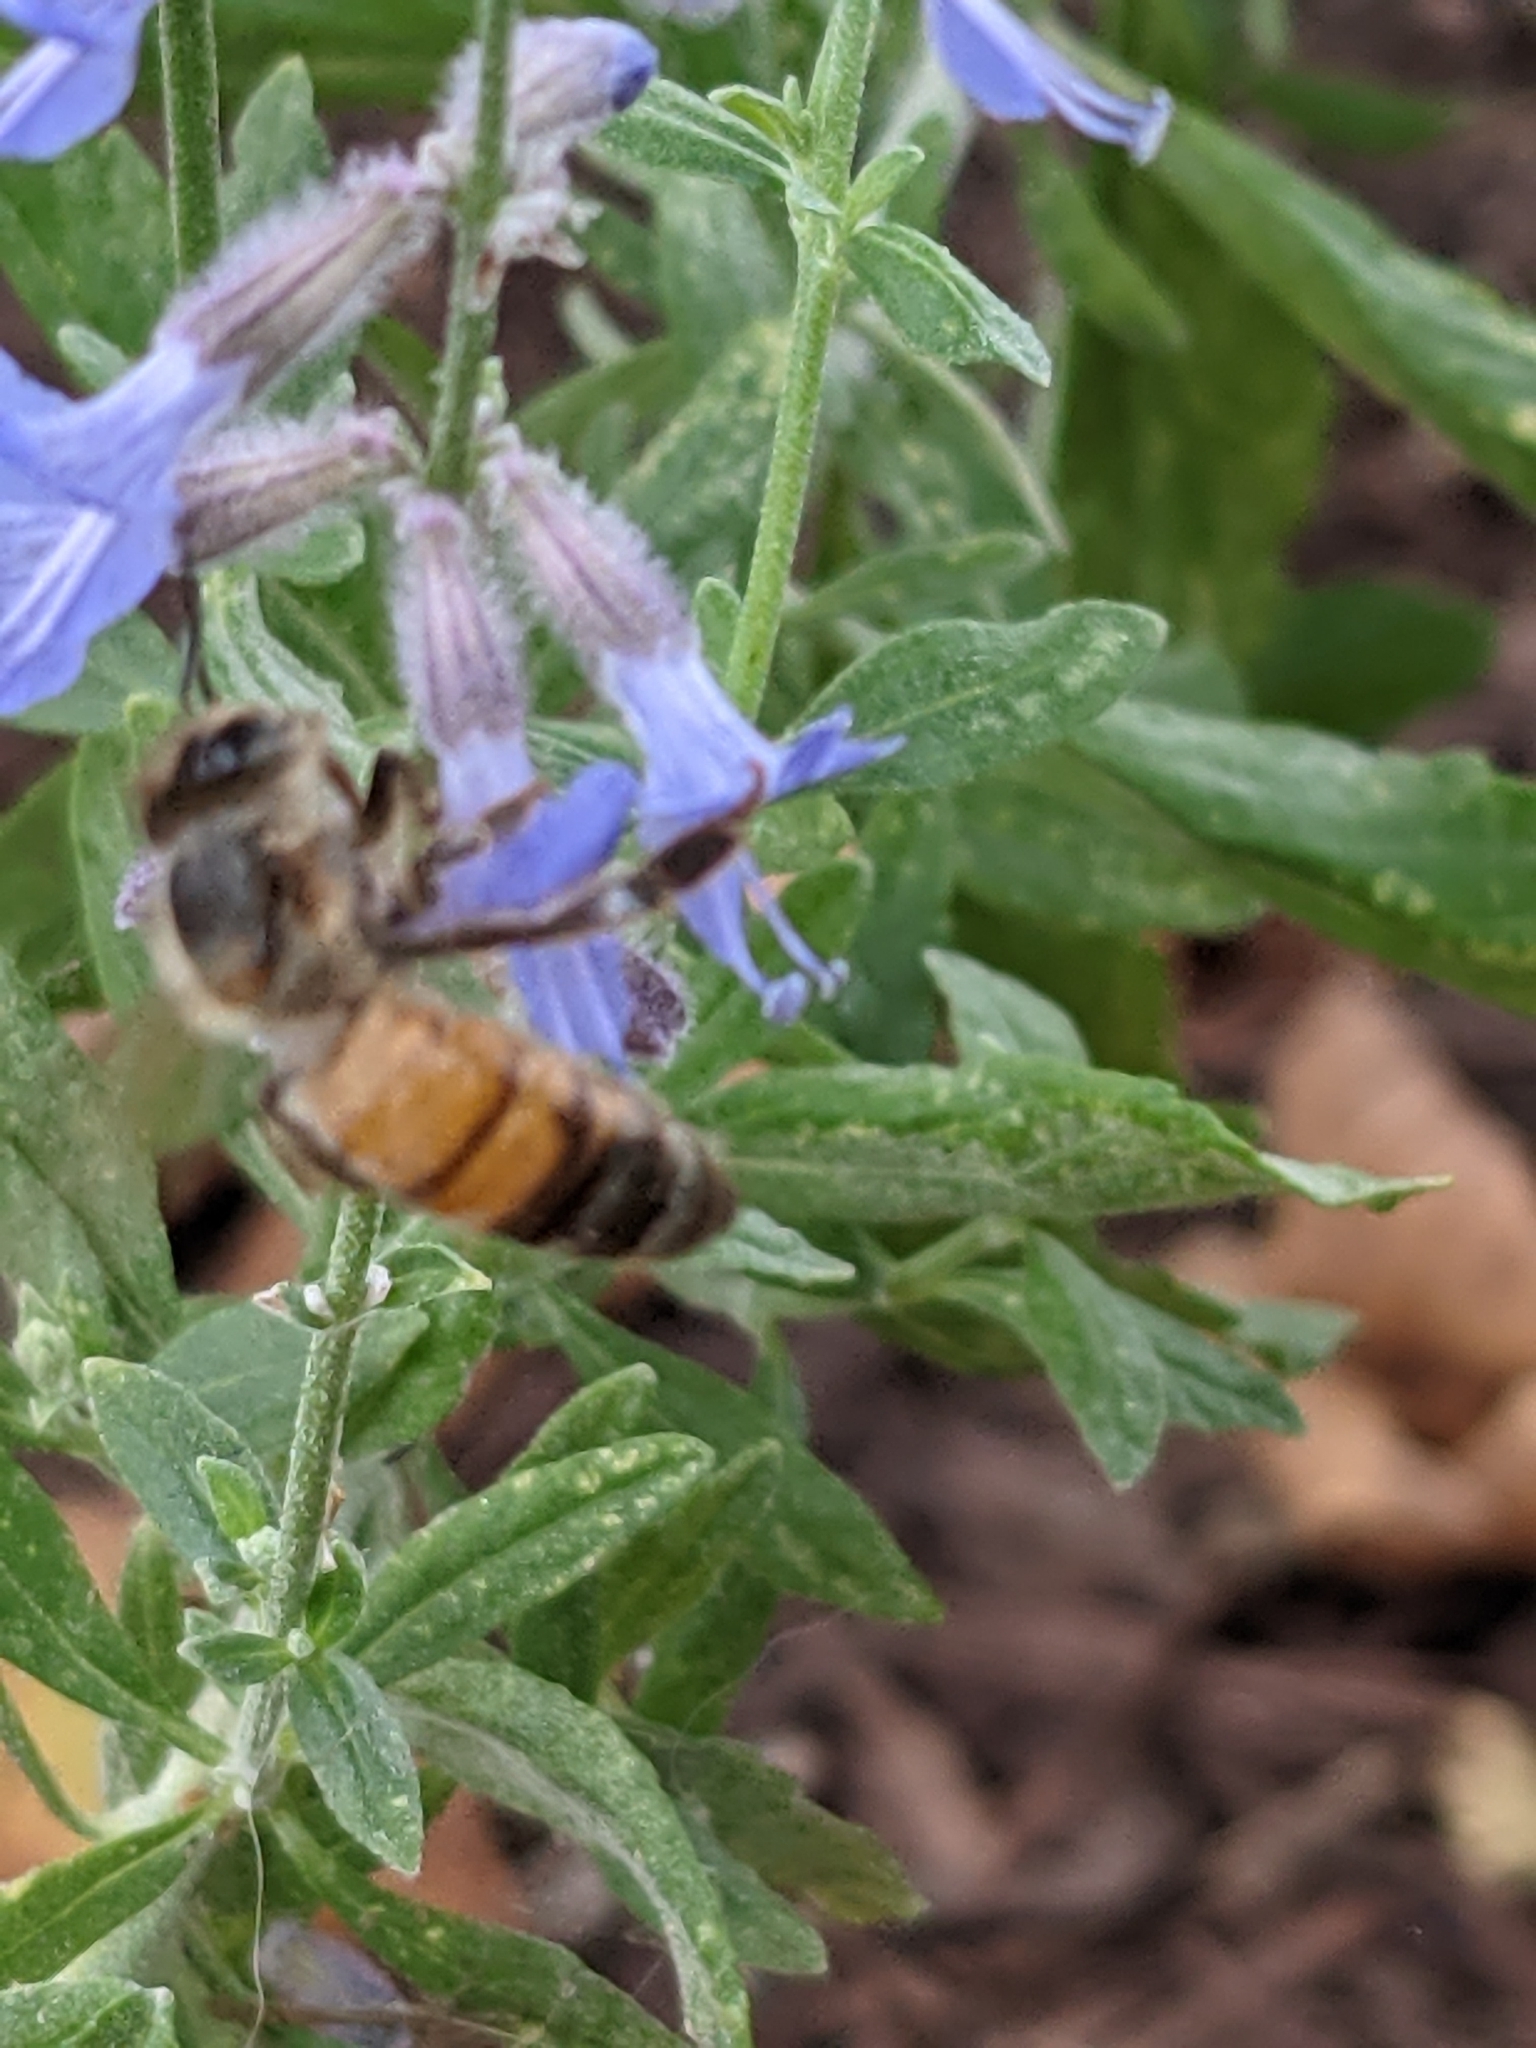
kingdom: Animalia
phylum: Arthropoda
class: Insecta
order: Hymenoptera
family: Apidae
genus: Apis
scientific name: Apis mellifera
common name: Honey bee
